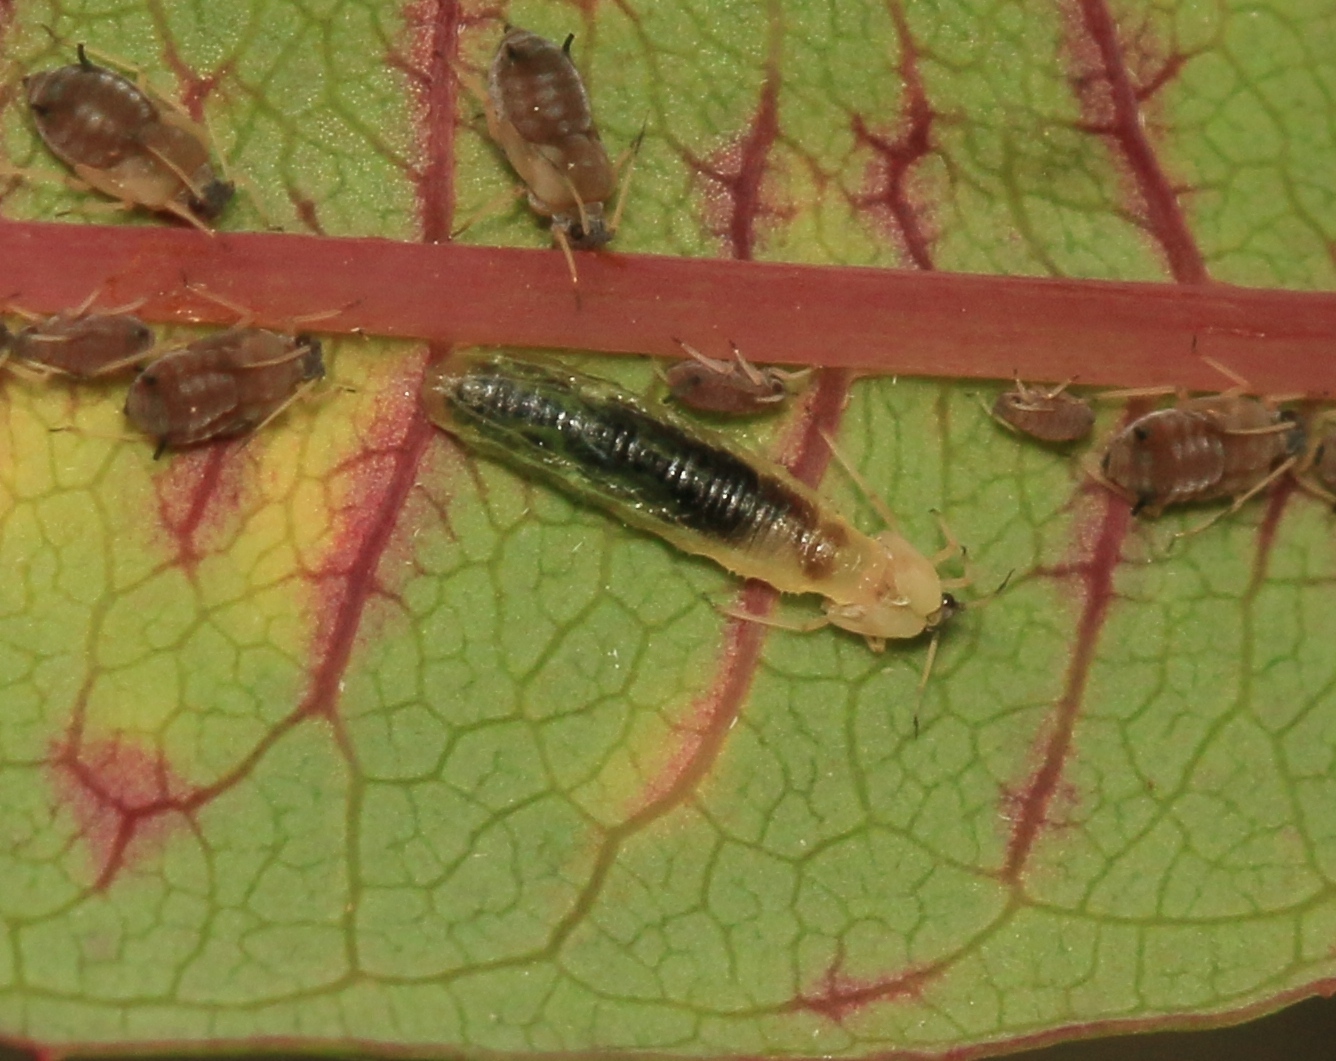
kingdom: Animalia
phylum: Arthropoda
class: Insecta
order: Diptera
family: Syrphidae
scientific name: Syrphidae
